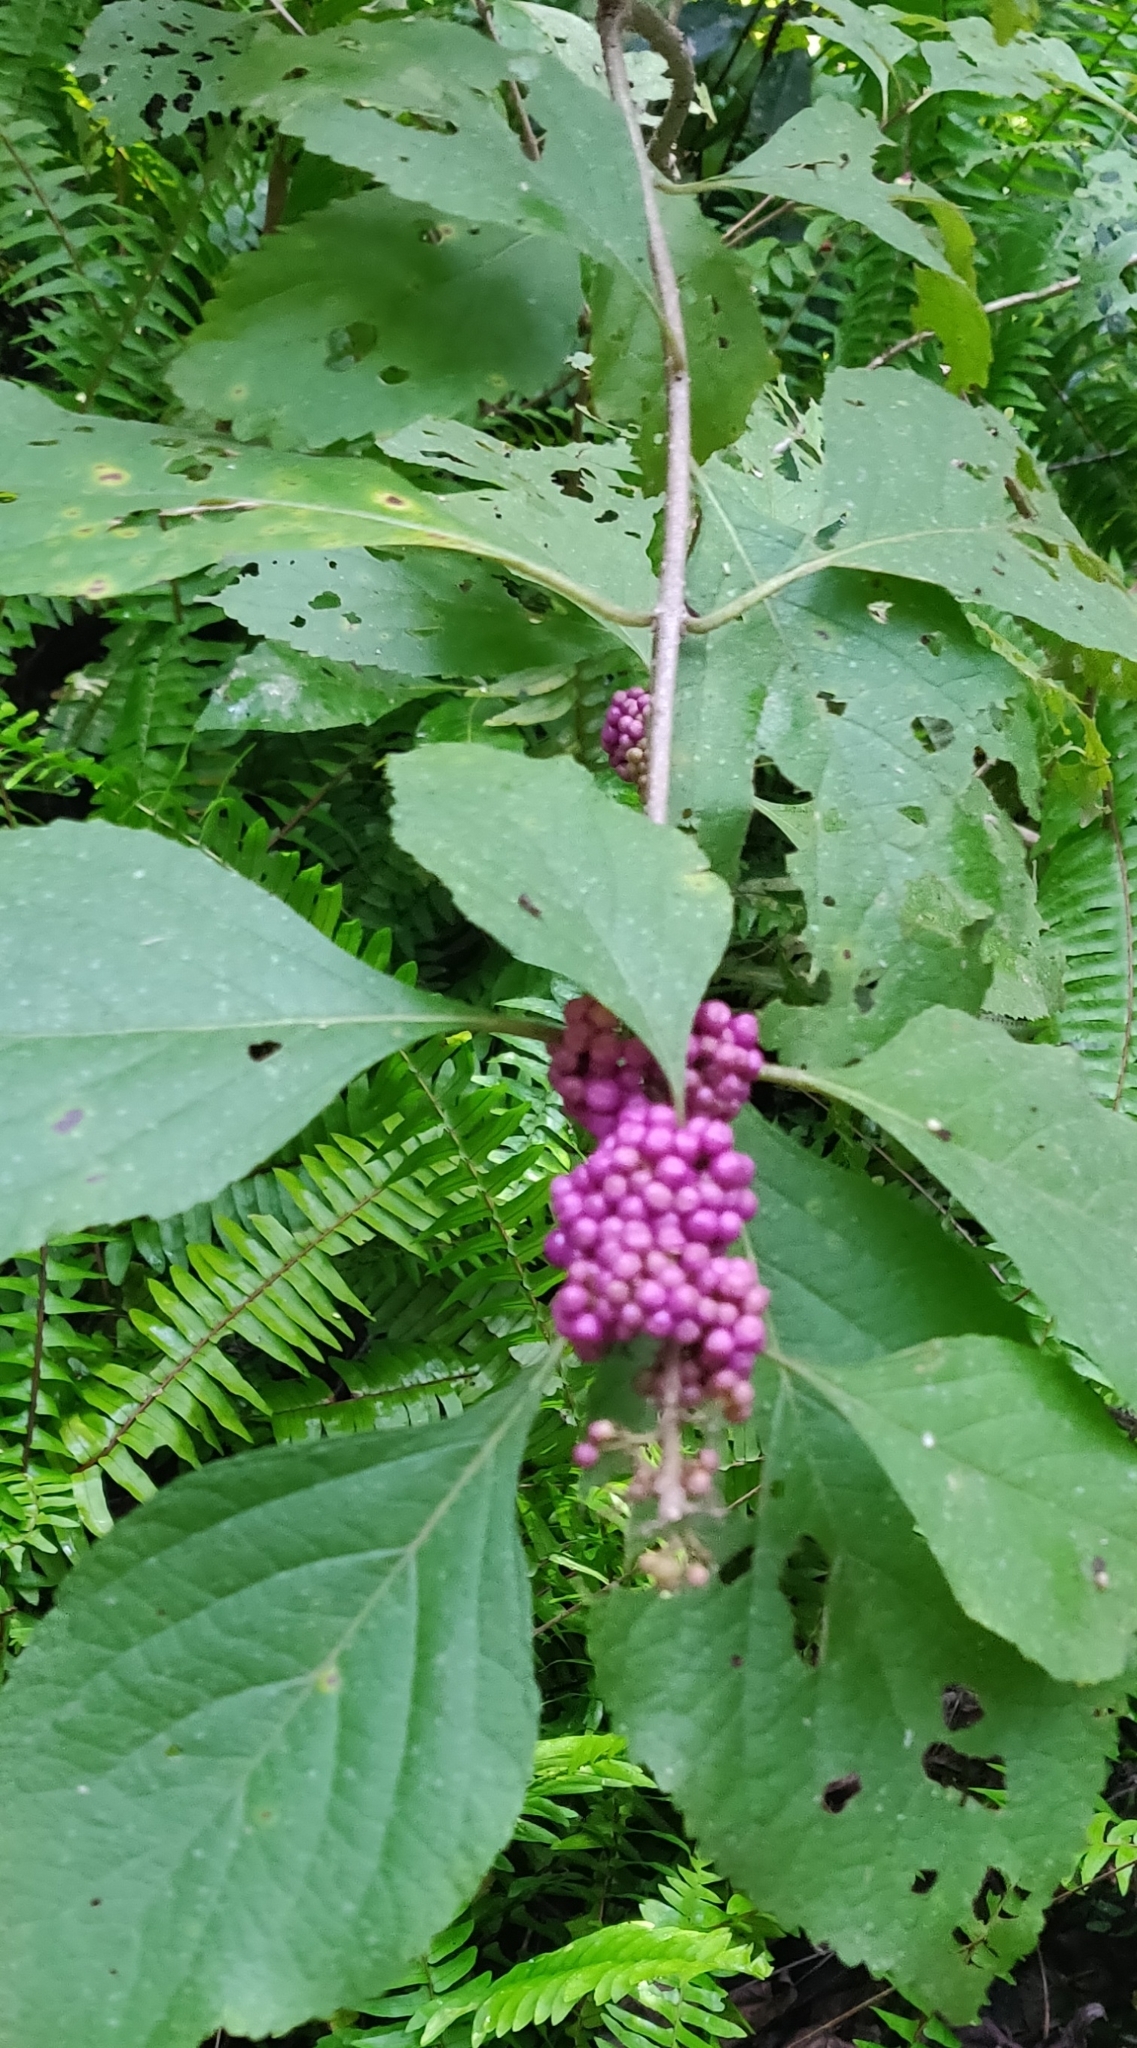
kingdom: Plantae
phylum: Tracheophyta
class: Magnoliopsida
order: Lamiales
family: Lamiaceae
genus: Callicarpa
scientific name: Callicarpa americana
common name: American beautyberry
